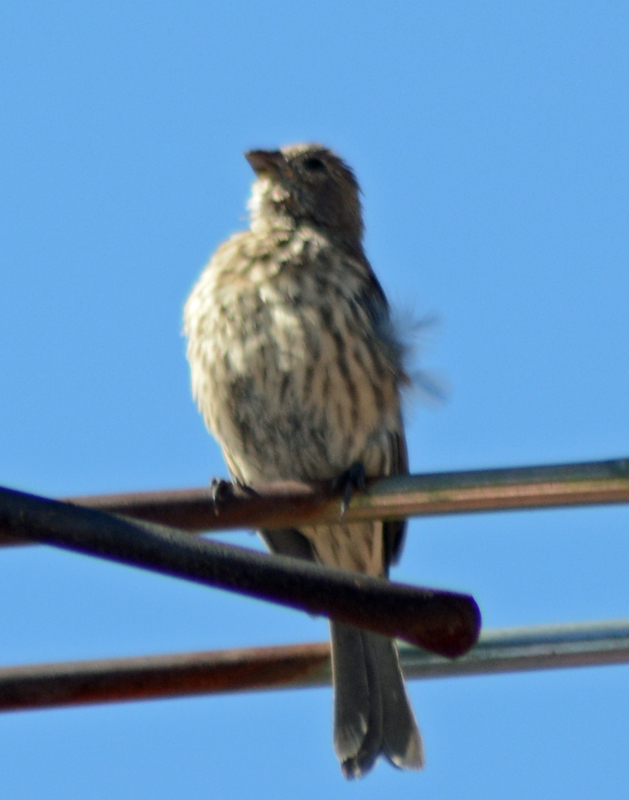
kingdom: Animalia
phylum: Chordata
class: Aves
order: Passeriformes
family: Fringillidae
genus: Haemorhous
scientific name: Haemorhous mexicanus
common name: House finch
